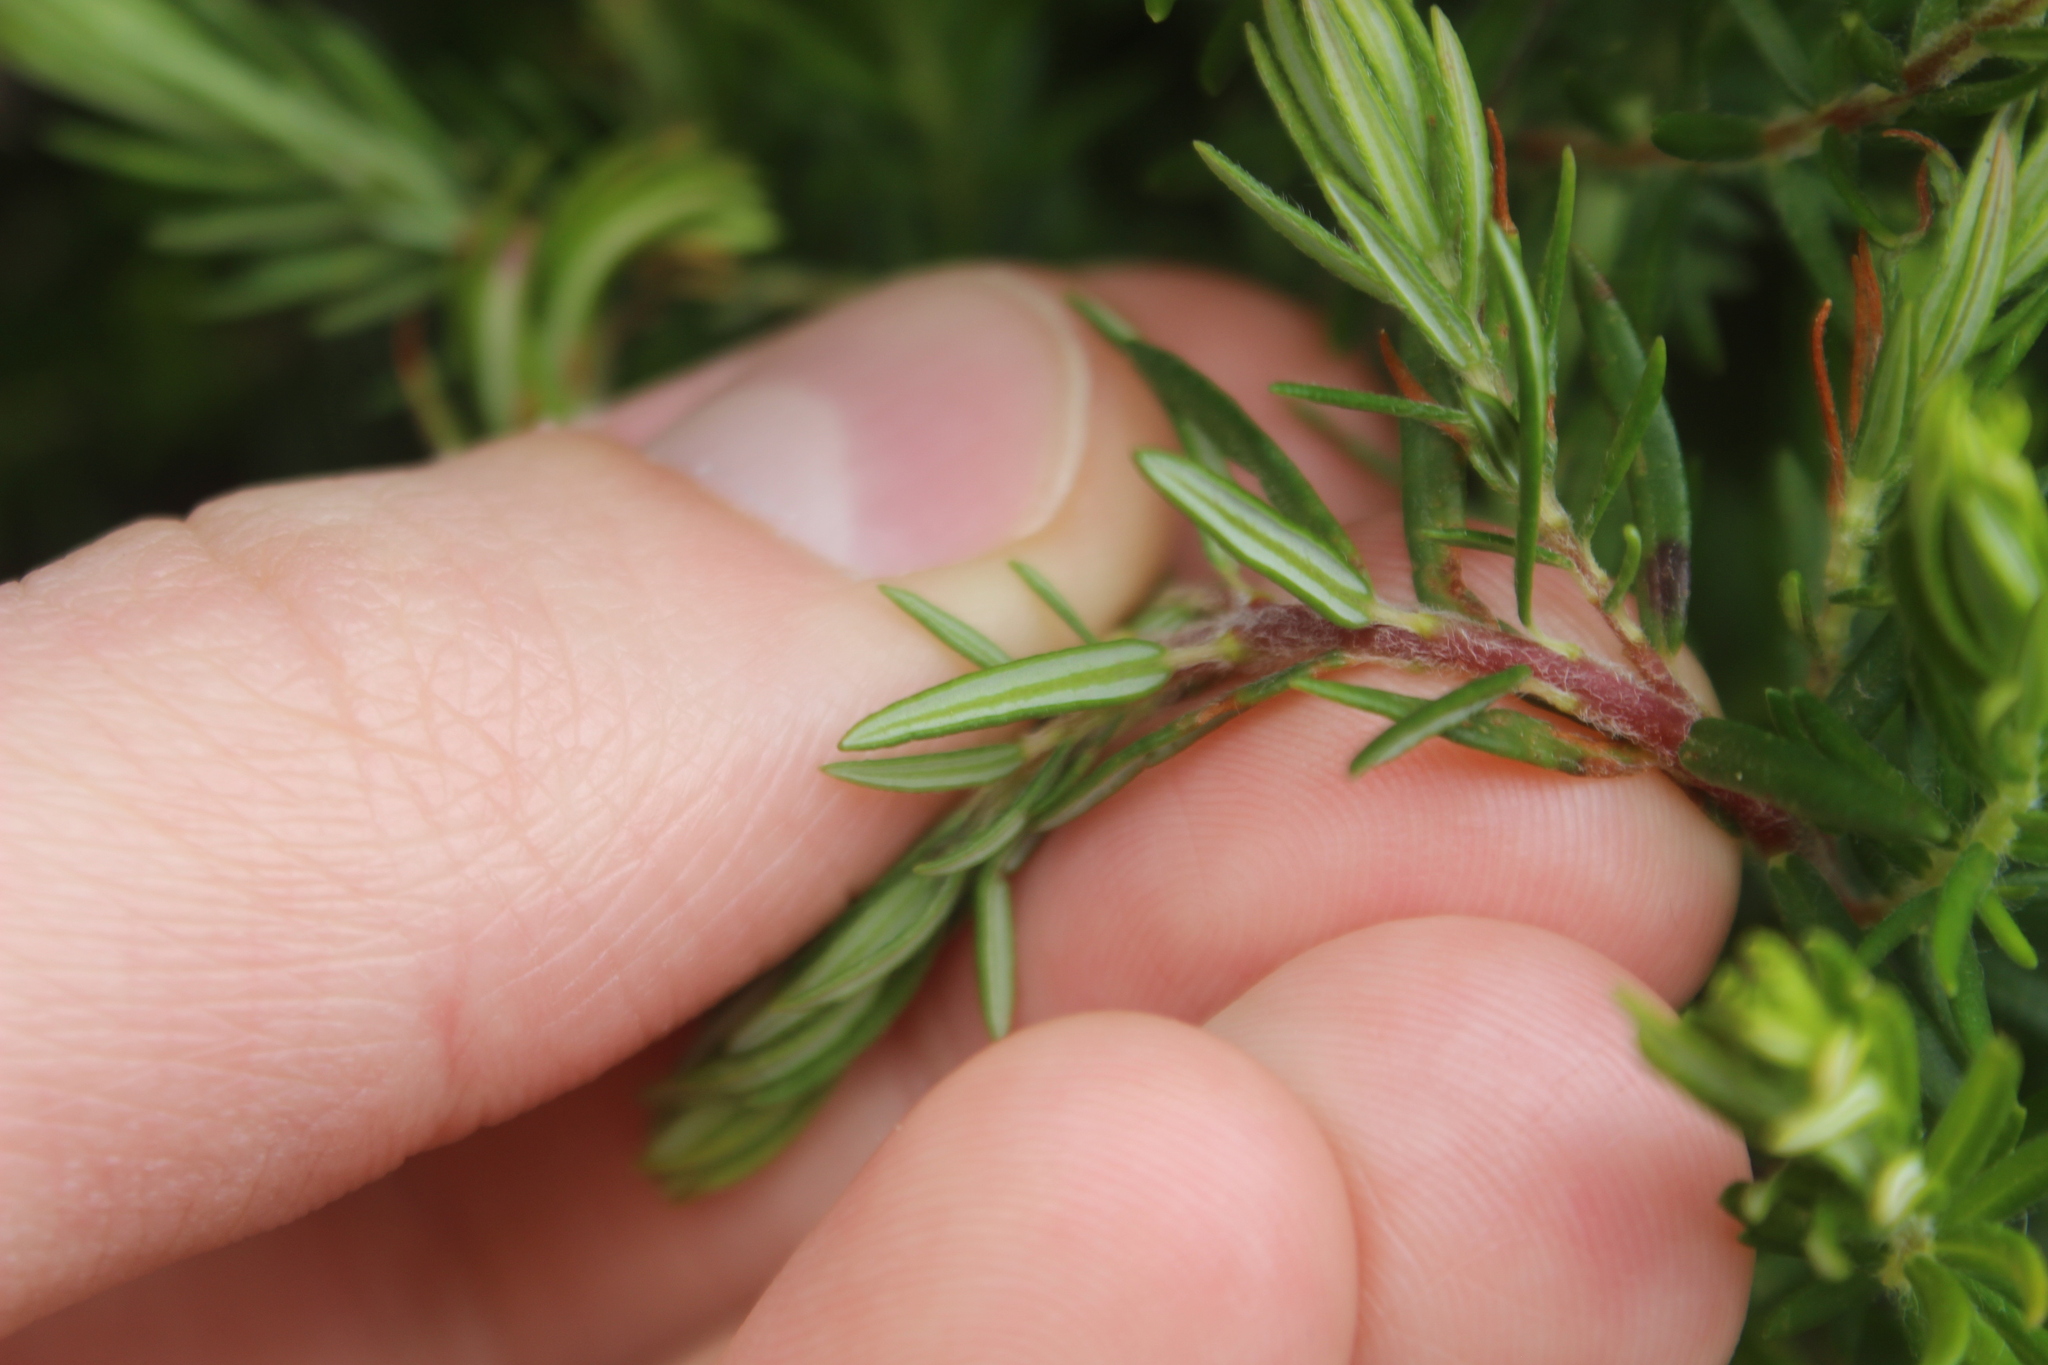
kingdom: Plantae
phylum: Tracheophyta
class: Magnoliopsida
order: Ericales
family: Ericaceae
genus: Erica
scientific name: Erica lusitanica
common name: Spanish heath
